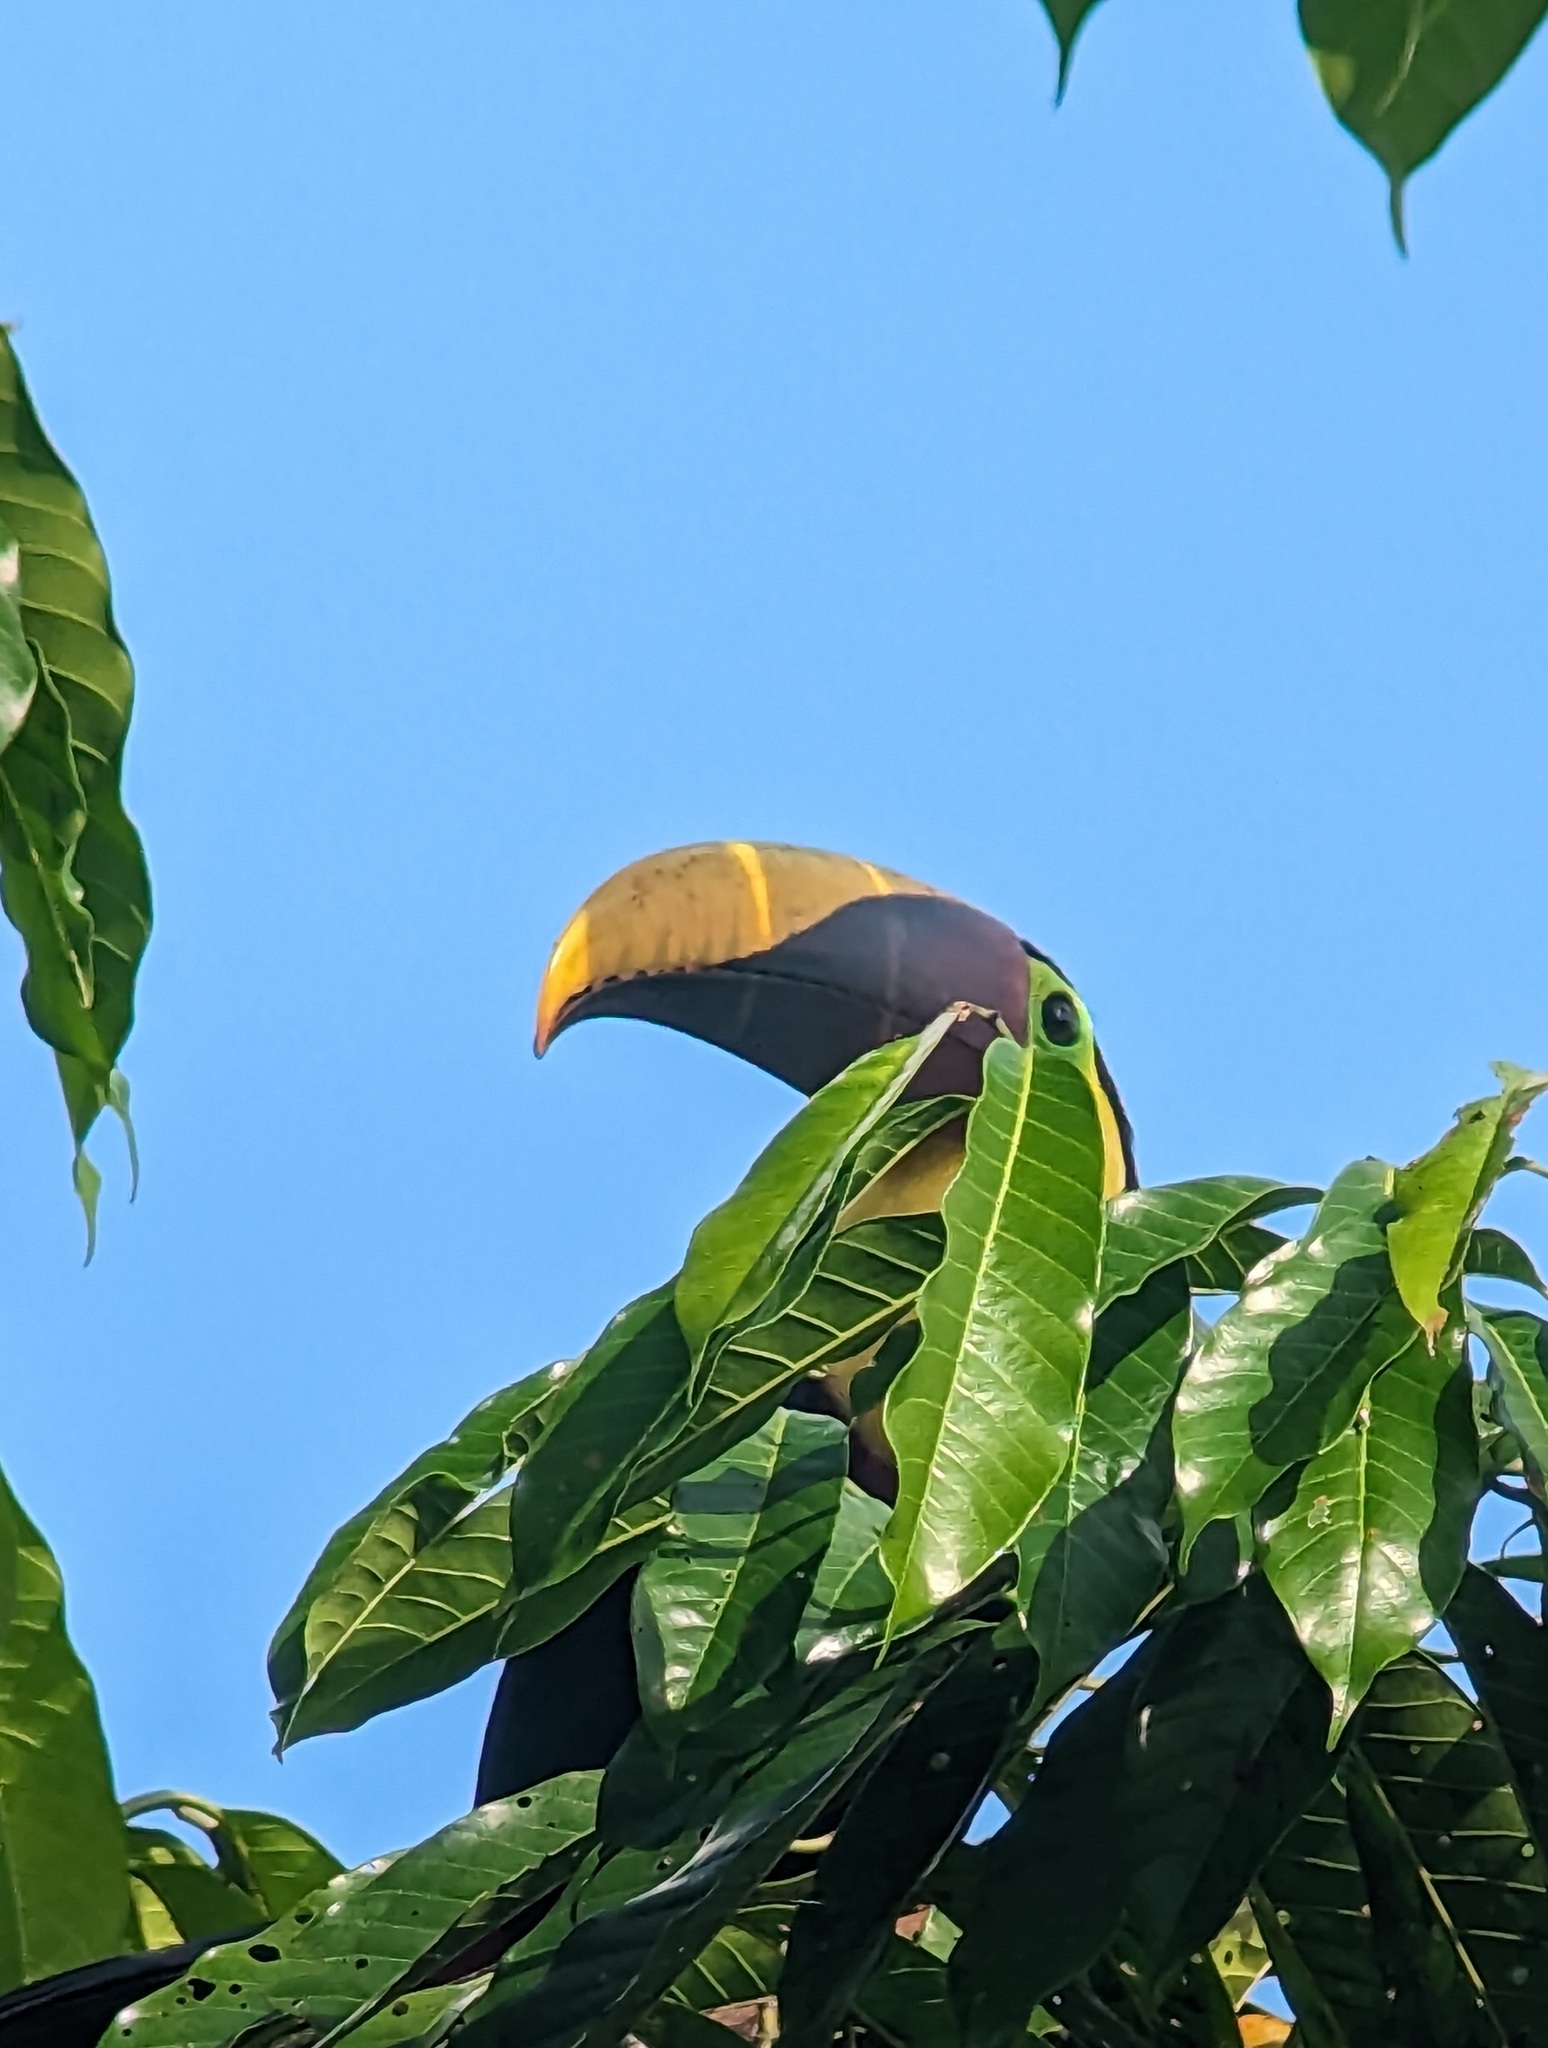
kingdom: Animalia
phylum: Chordata
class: Aves
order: Piciformes
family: Ramphastidae
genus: Ramphastos
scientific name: Ramphastos ambiguus
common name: Yellow-throated toucan
